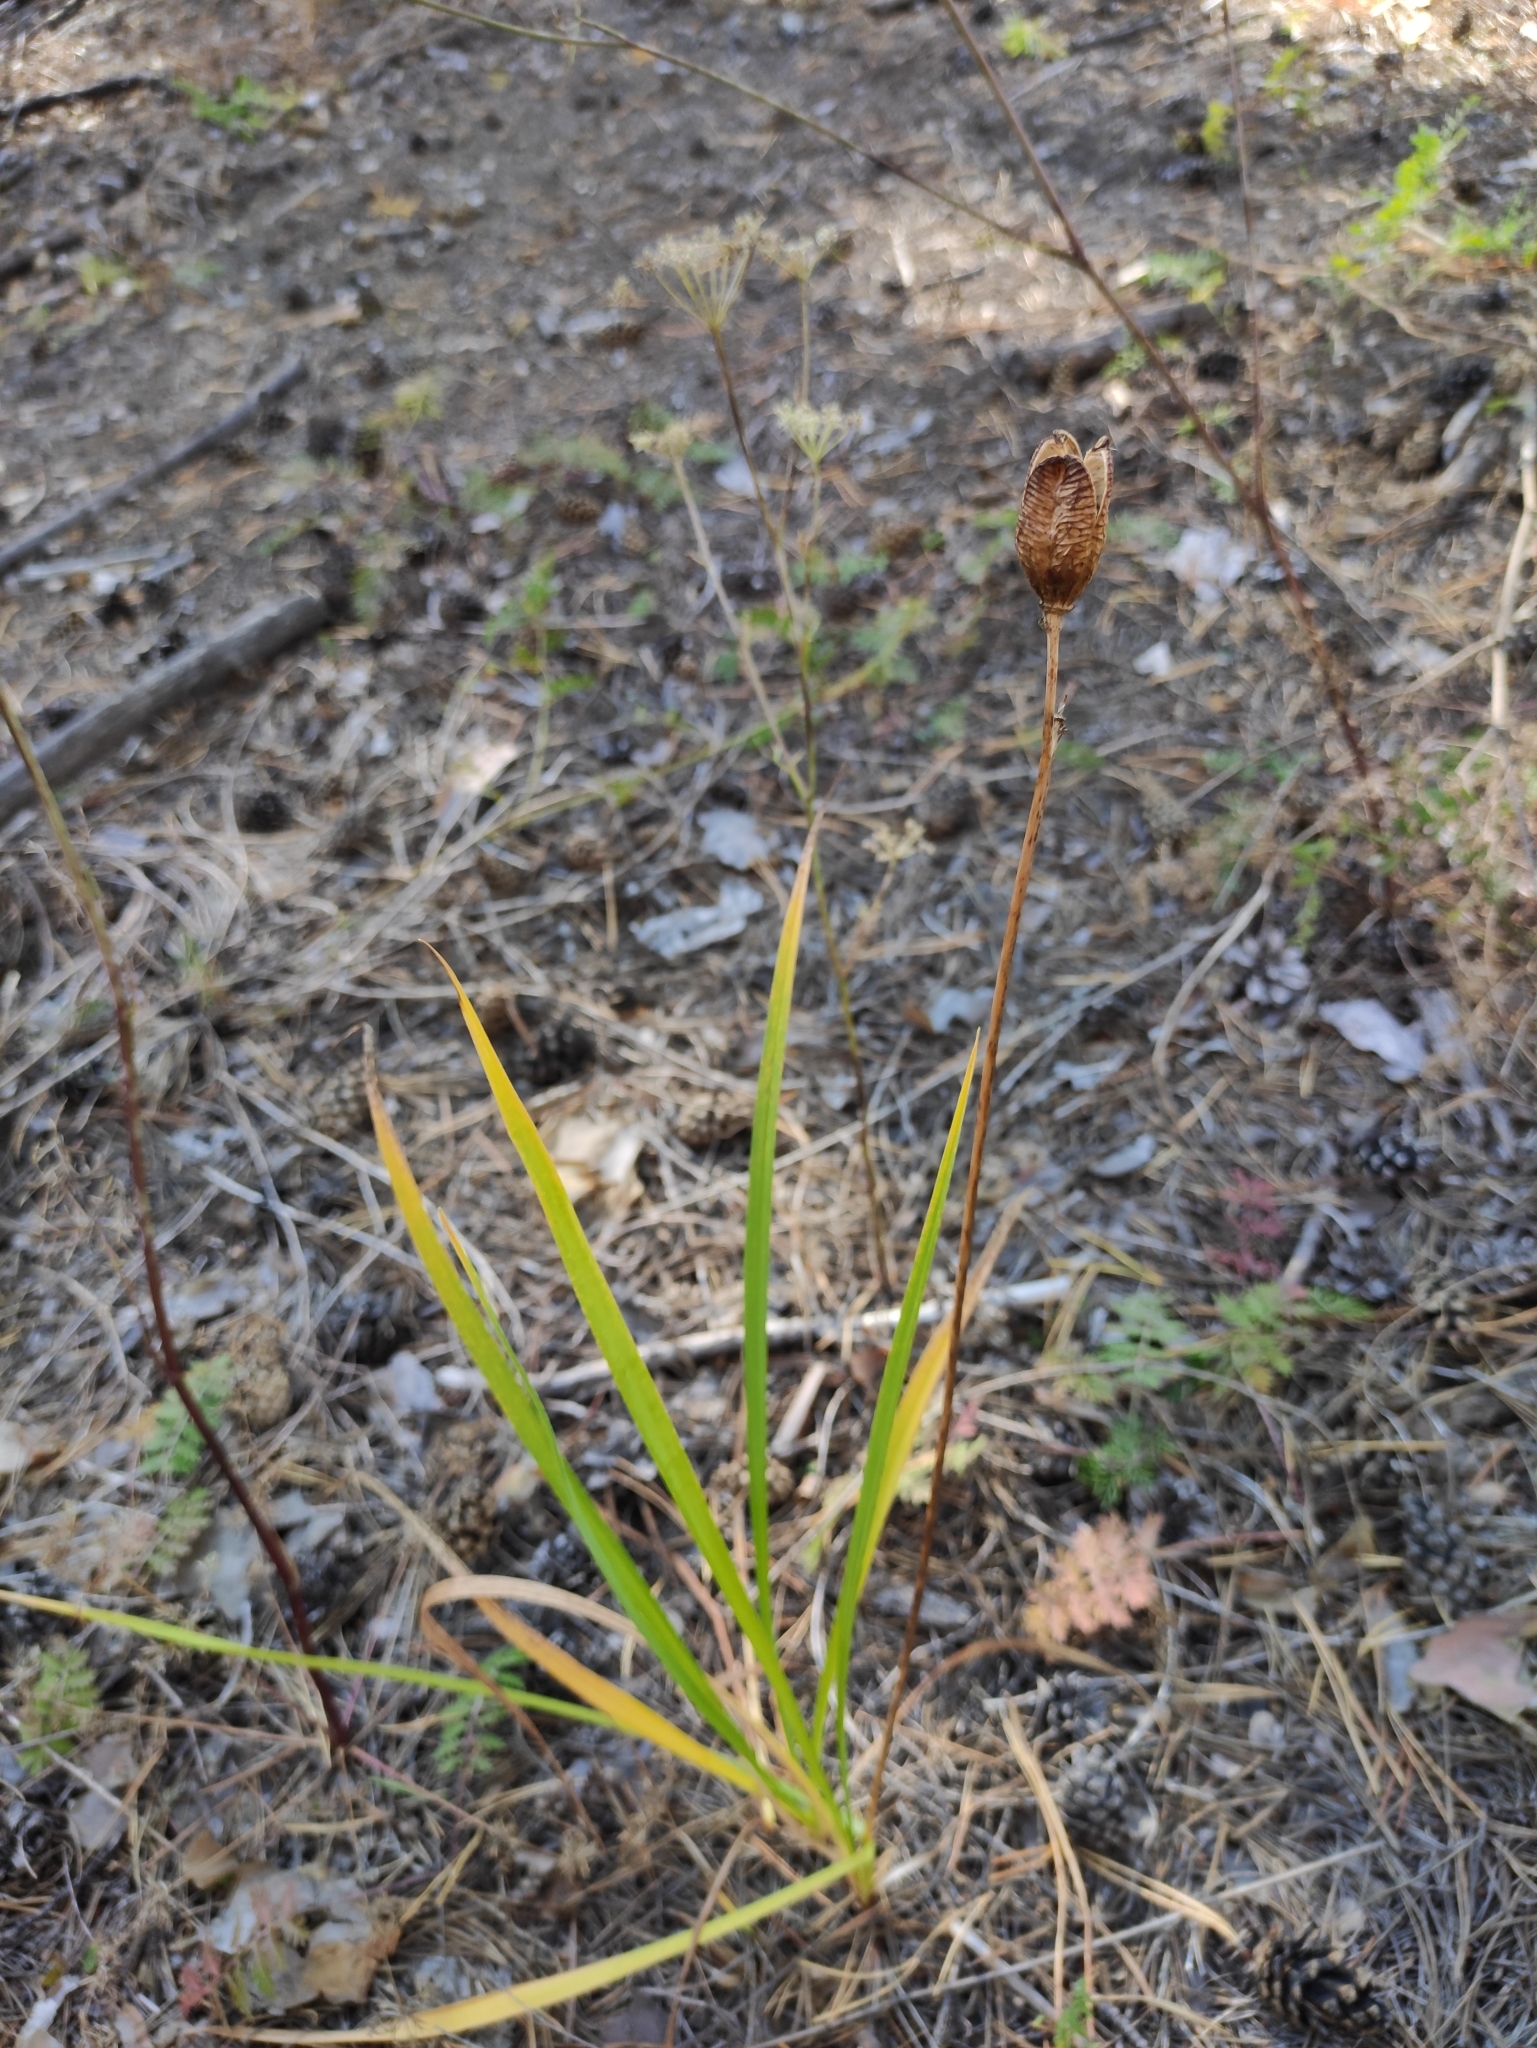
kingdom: Plantae
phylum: Tracheophyta
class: Liliopsida
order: Asparagales
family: Asphodelaceae
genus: Hemerocallis
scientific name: Hemerocallis minor
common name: Small daylily
